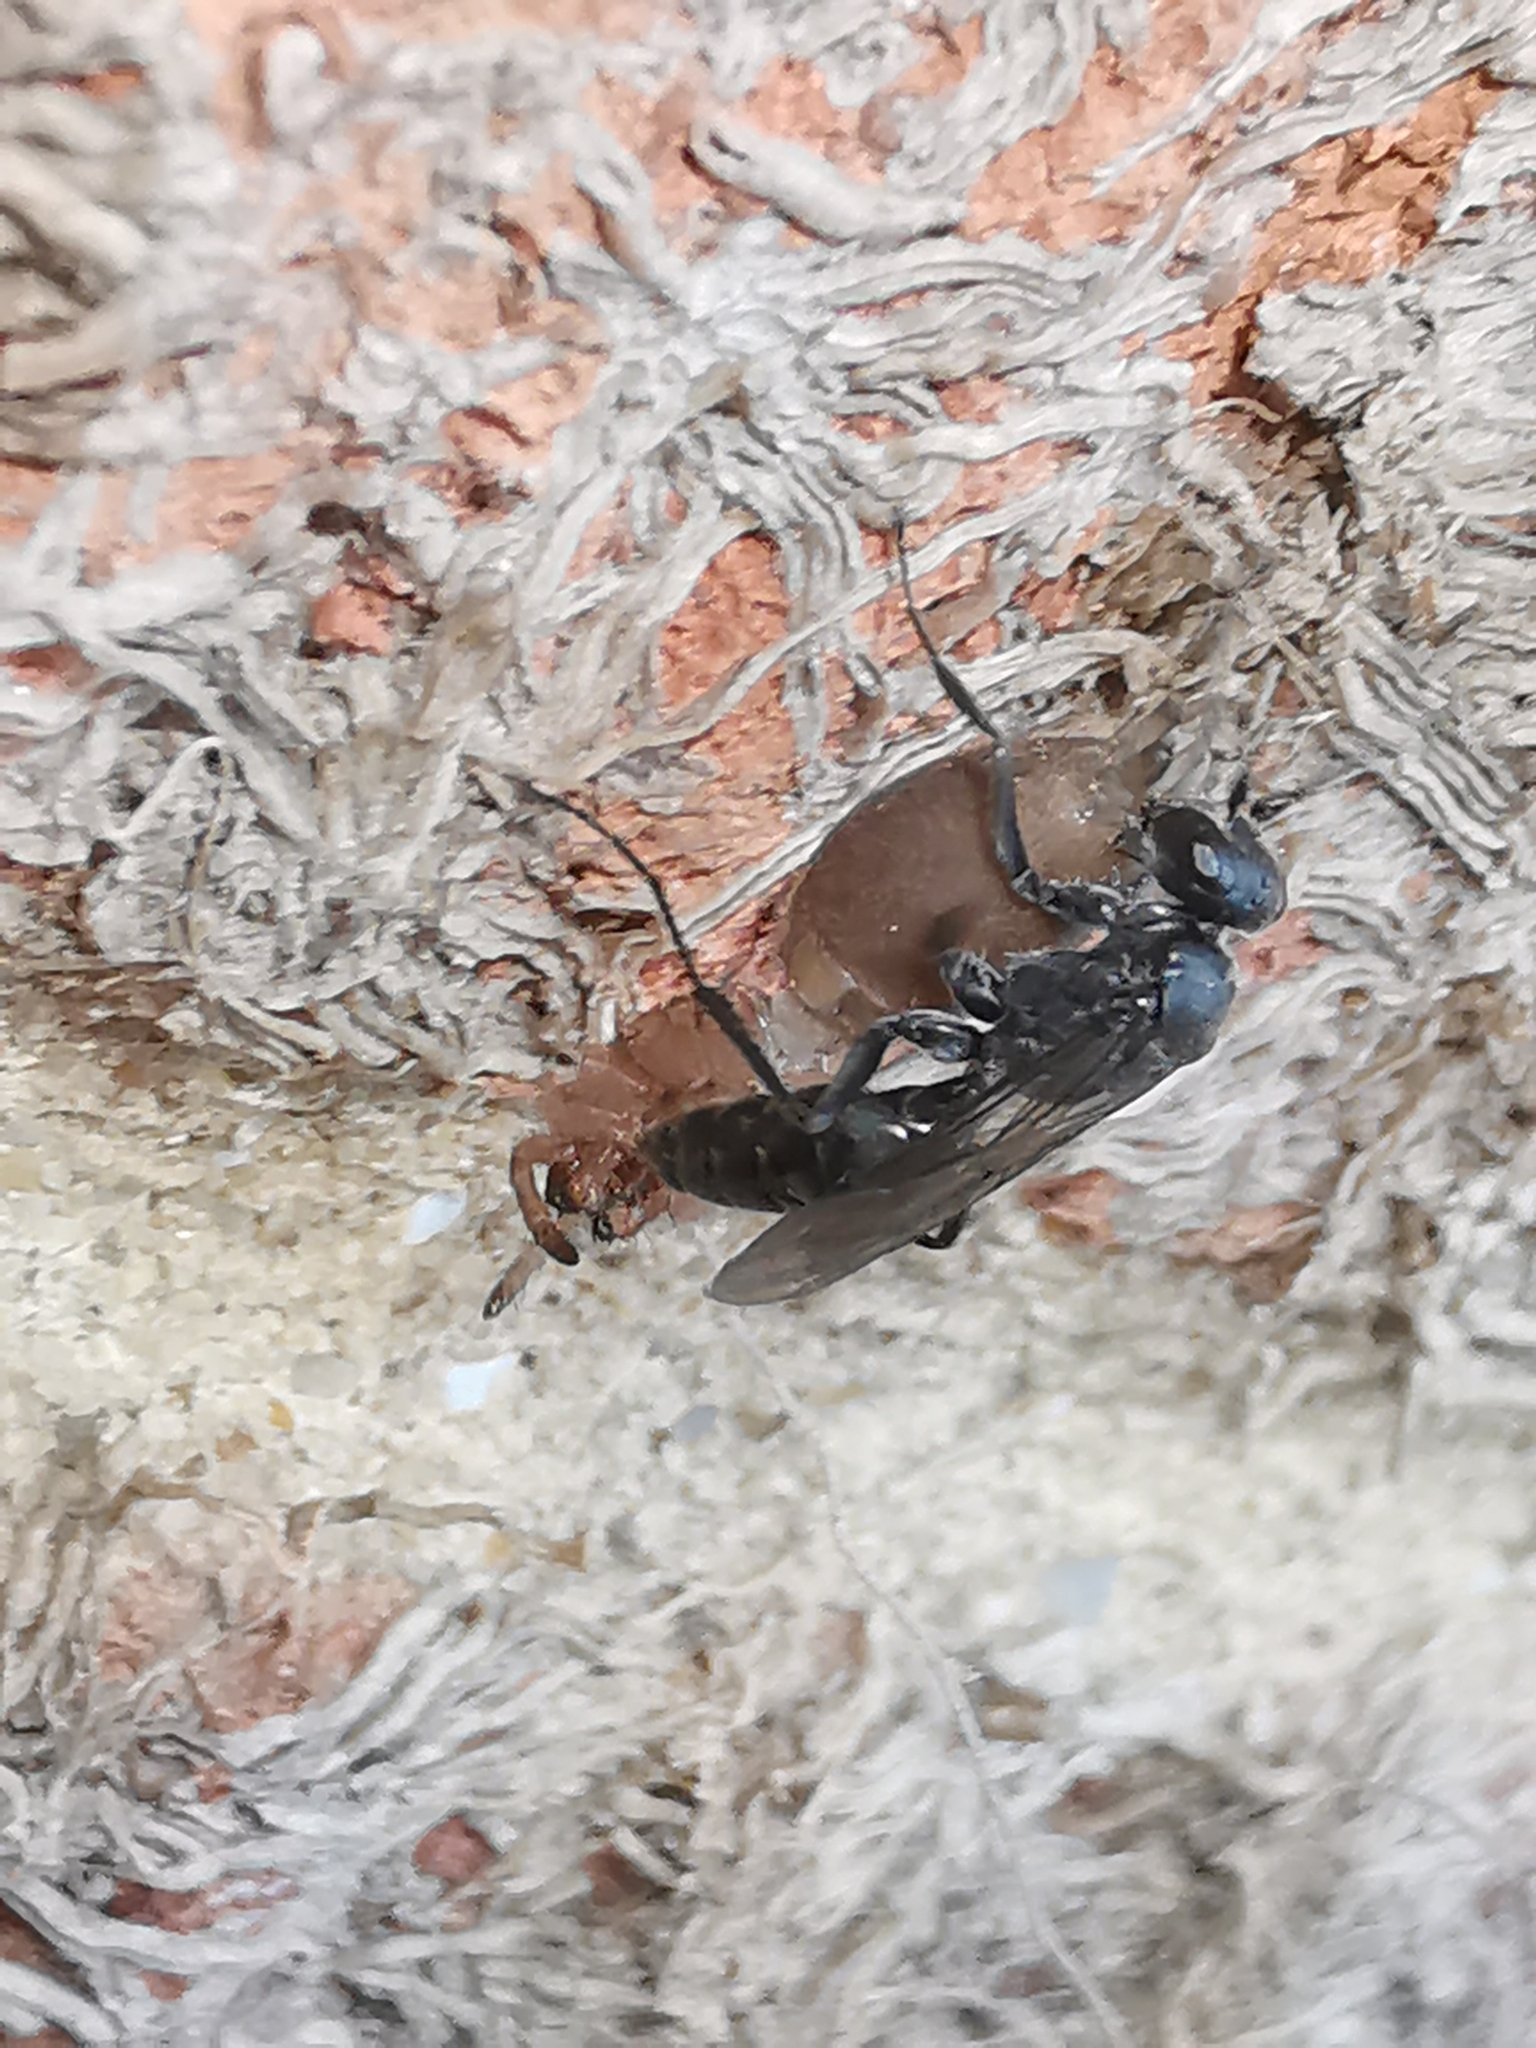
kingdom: Animalia
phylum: Arthropoda
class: Insecta
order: Hymenoptera
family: Pompilidae
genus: Auplopus
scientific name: Auplopus carbonarius
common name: Spider wasp
